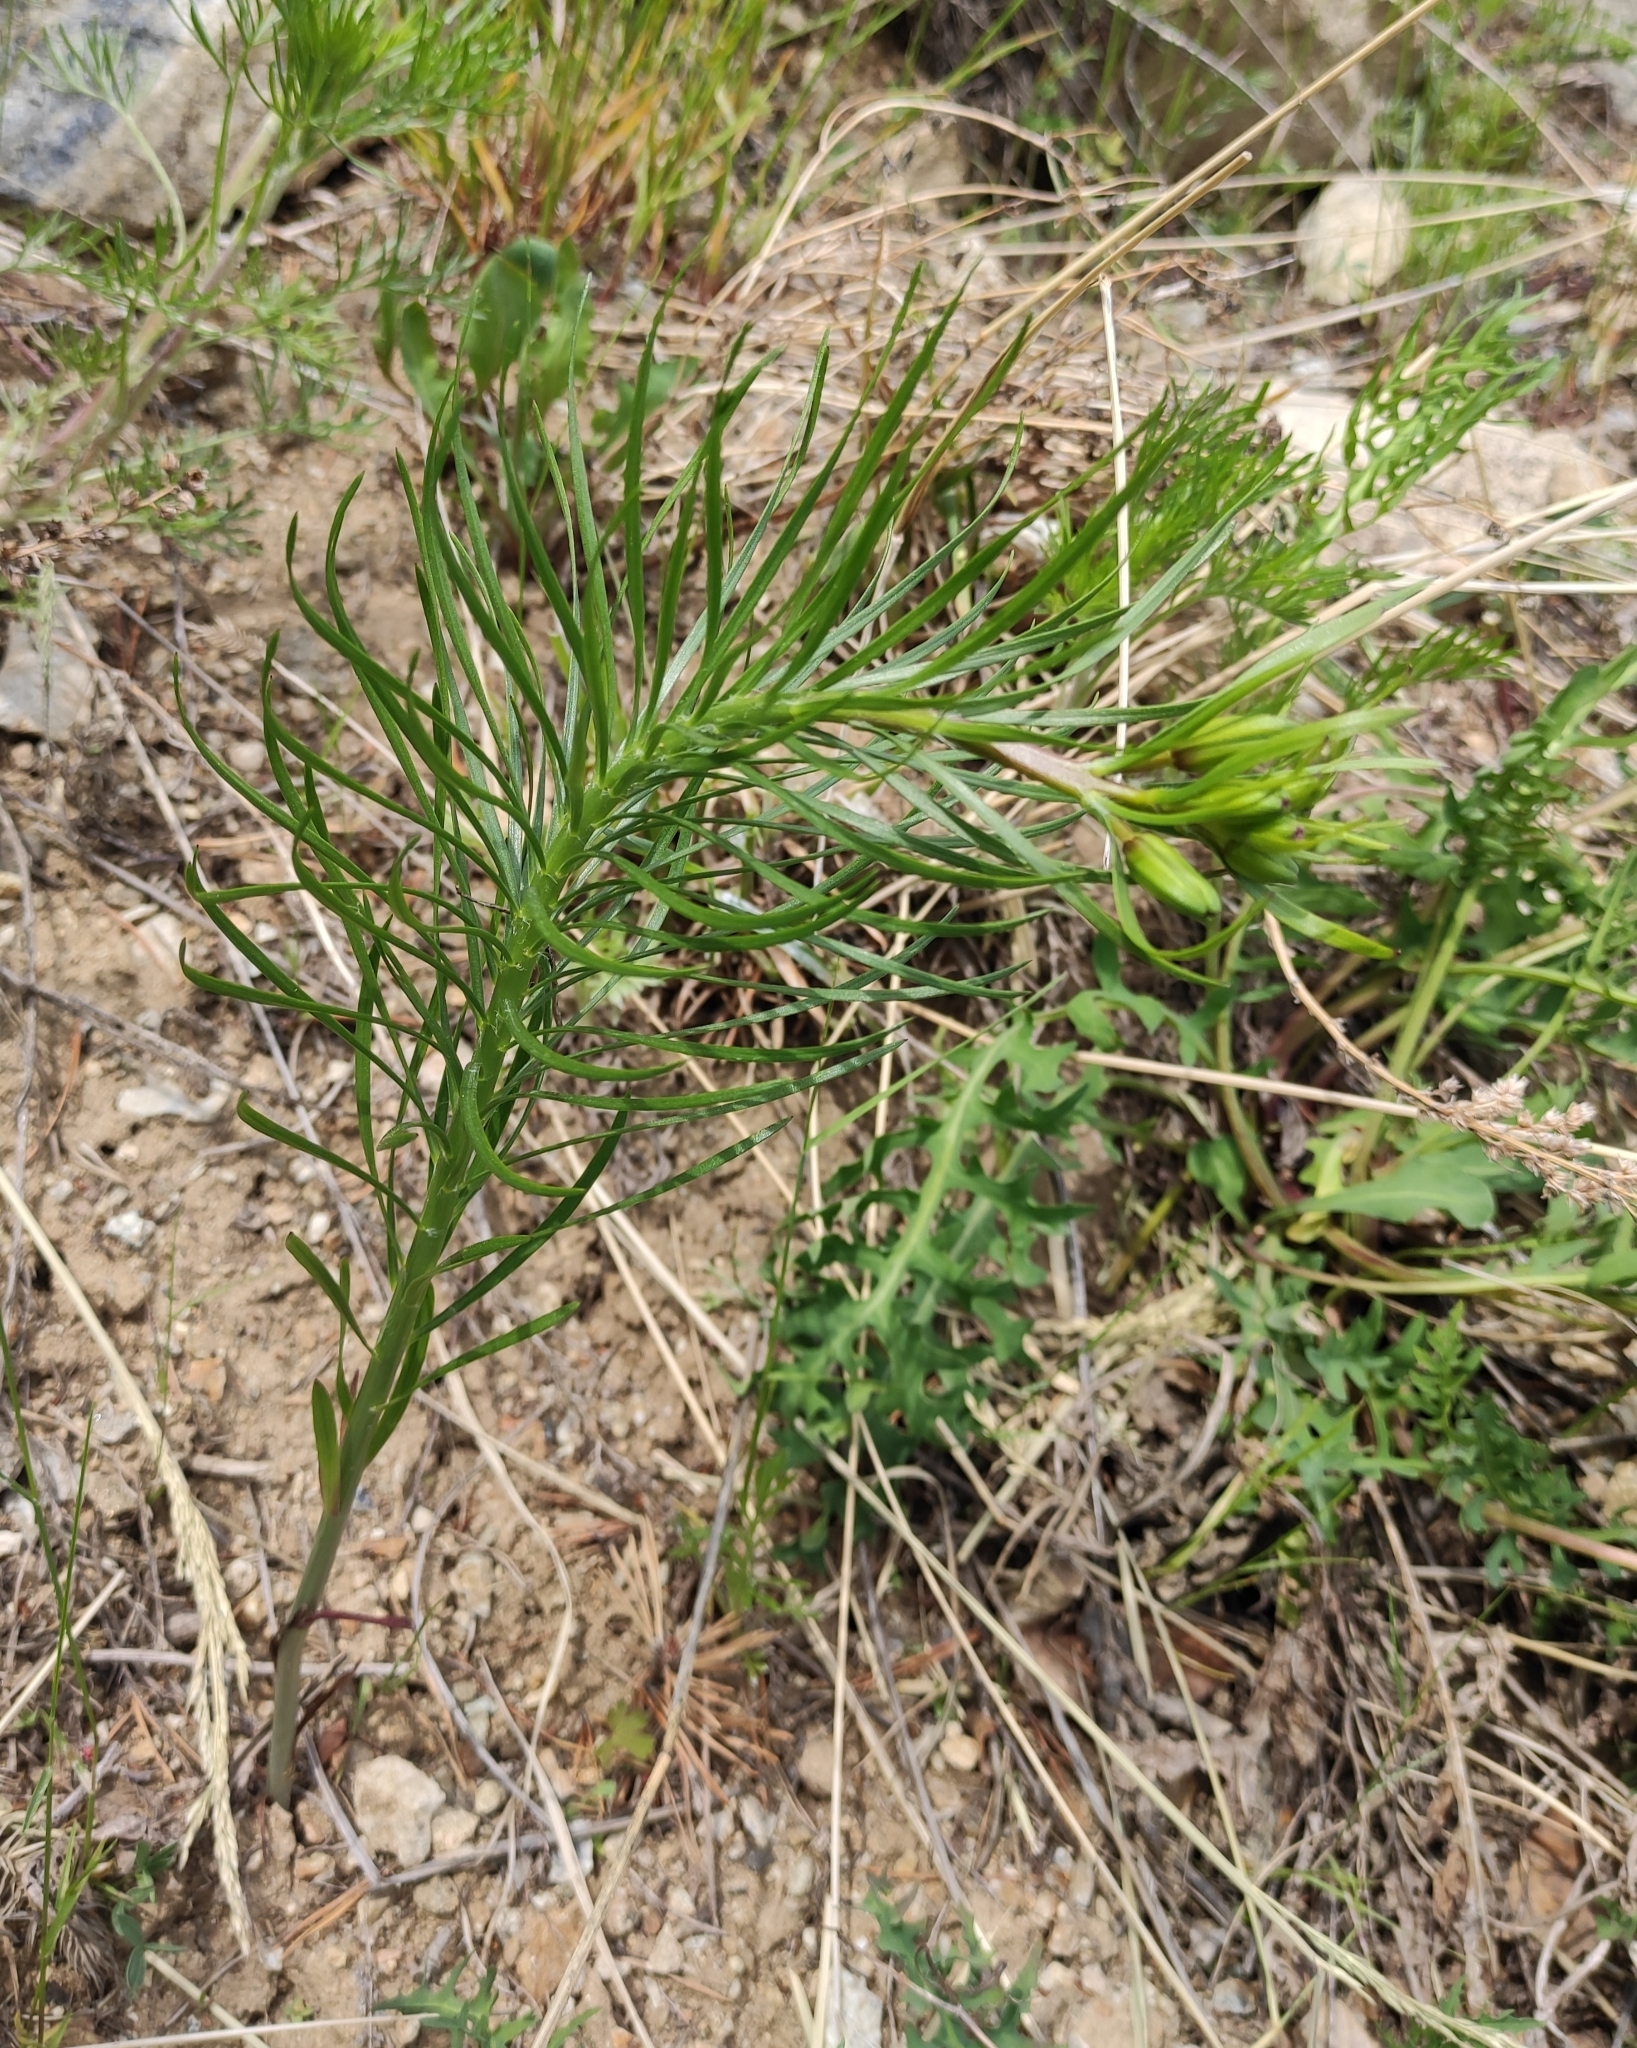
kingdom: Plantae
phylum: Tracheophyta
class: Liliopsida
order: Liliales
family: Liliaceae
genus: Lilium
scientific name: Lilium pumilum
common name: Coral lily
